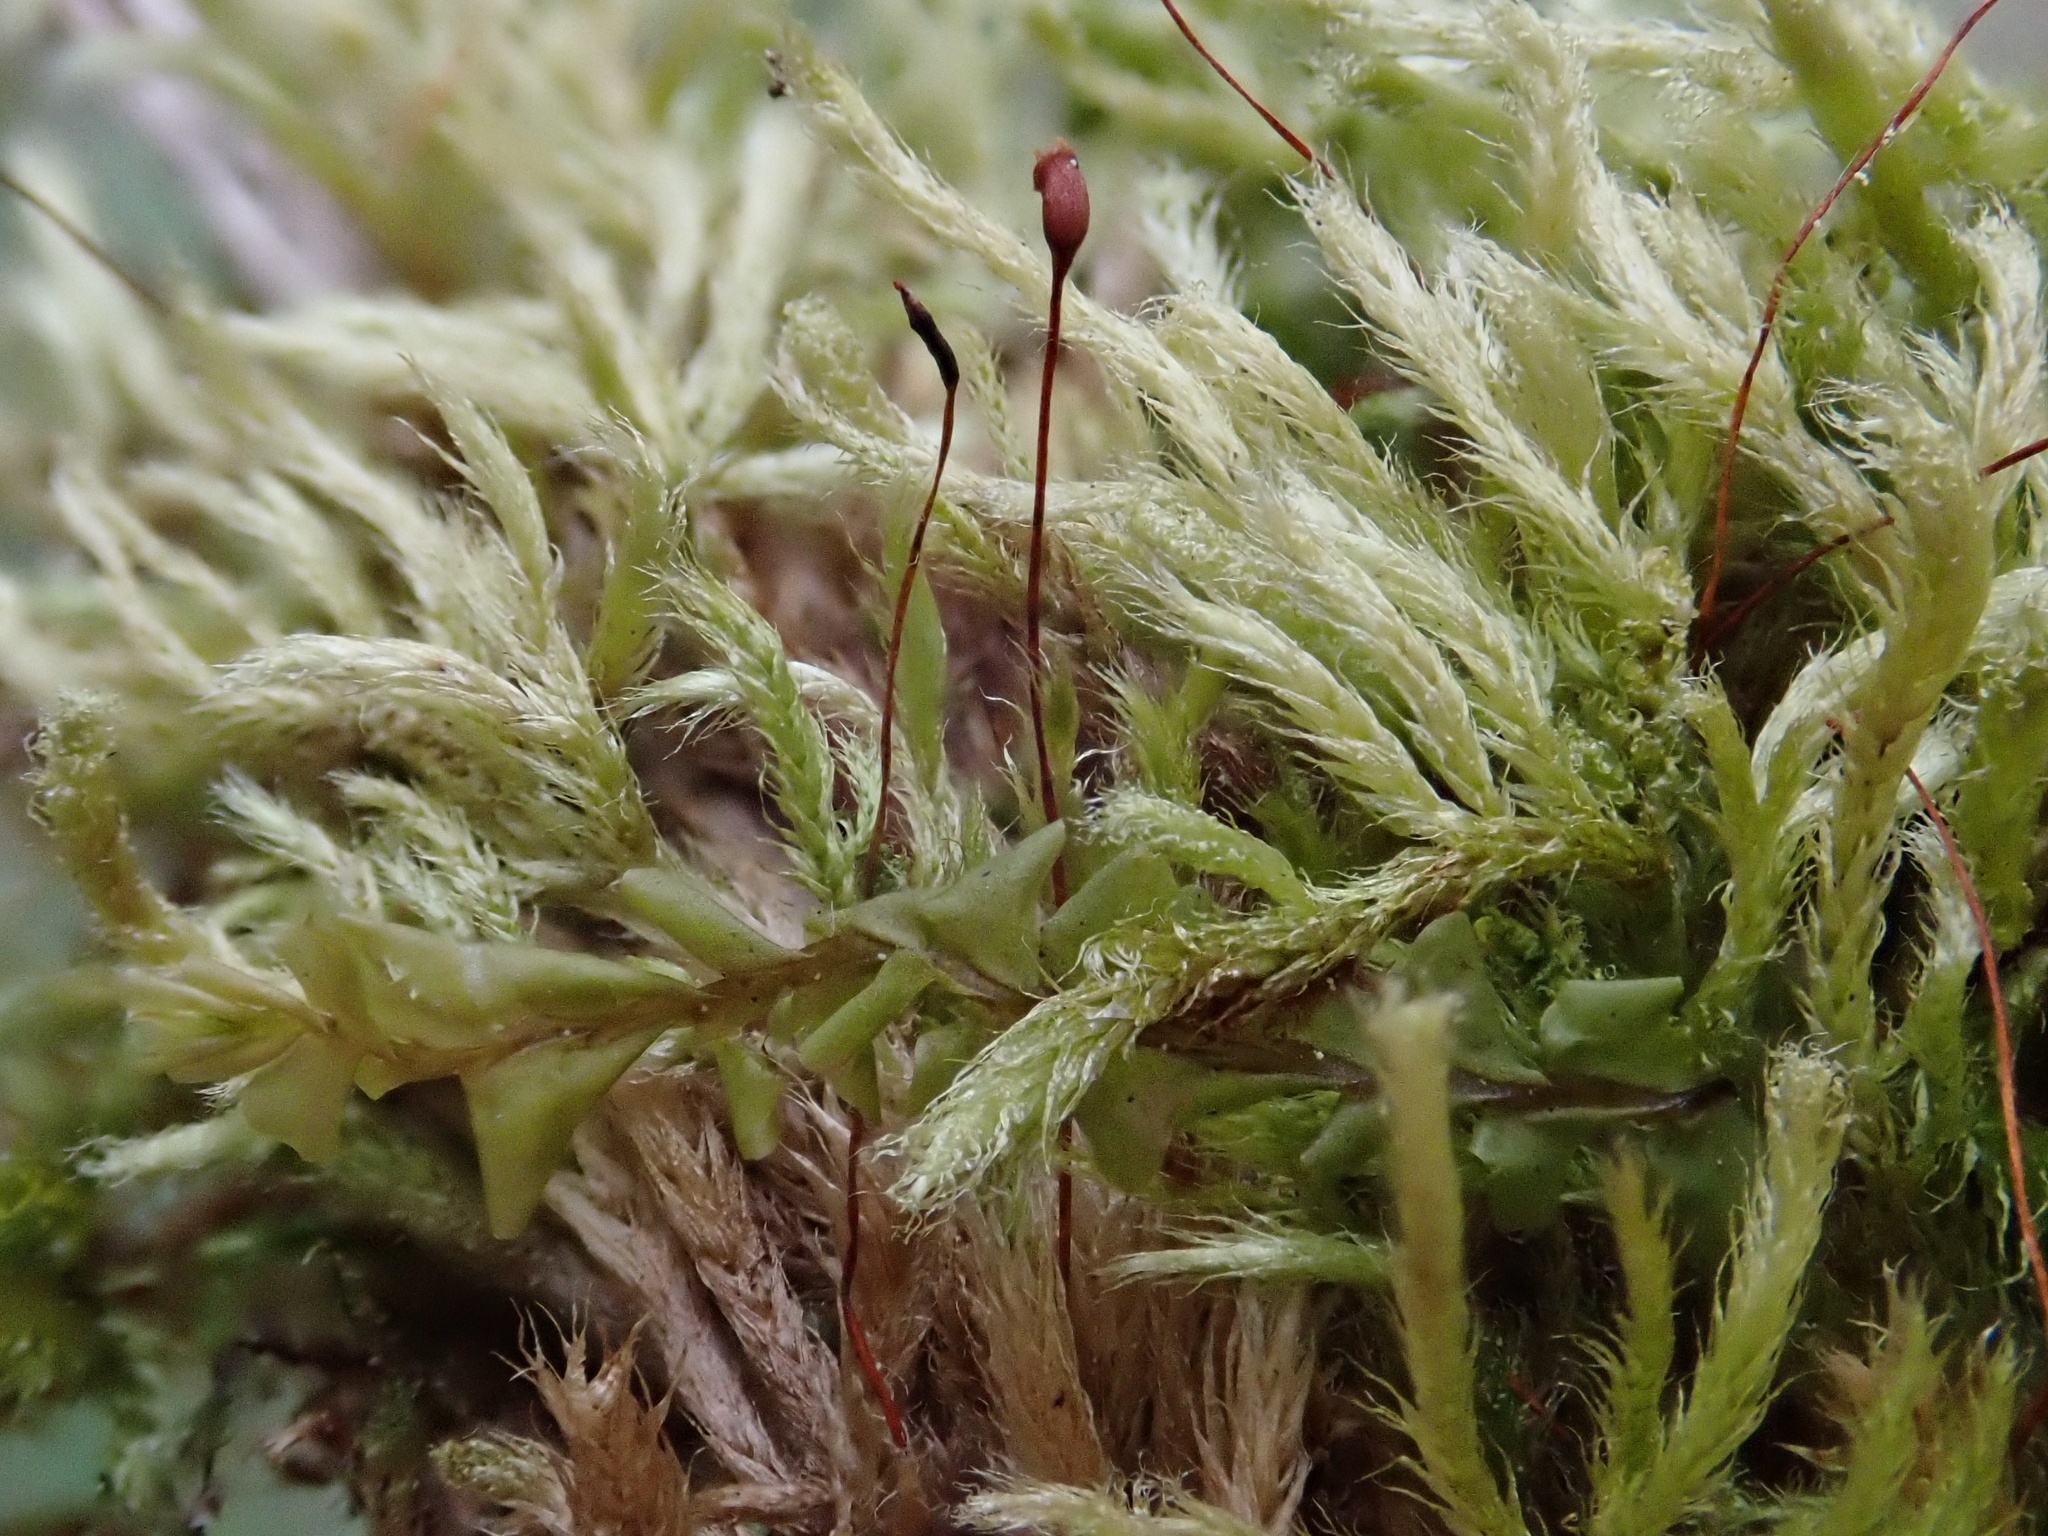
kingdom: Plantae
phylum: Bryophyta
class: Bryopsida
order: Hypnales
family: Brachytheciaceae
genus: Brachythecium
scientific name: Brachythecium glareosum
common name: Streaky feather-moss
